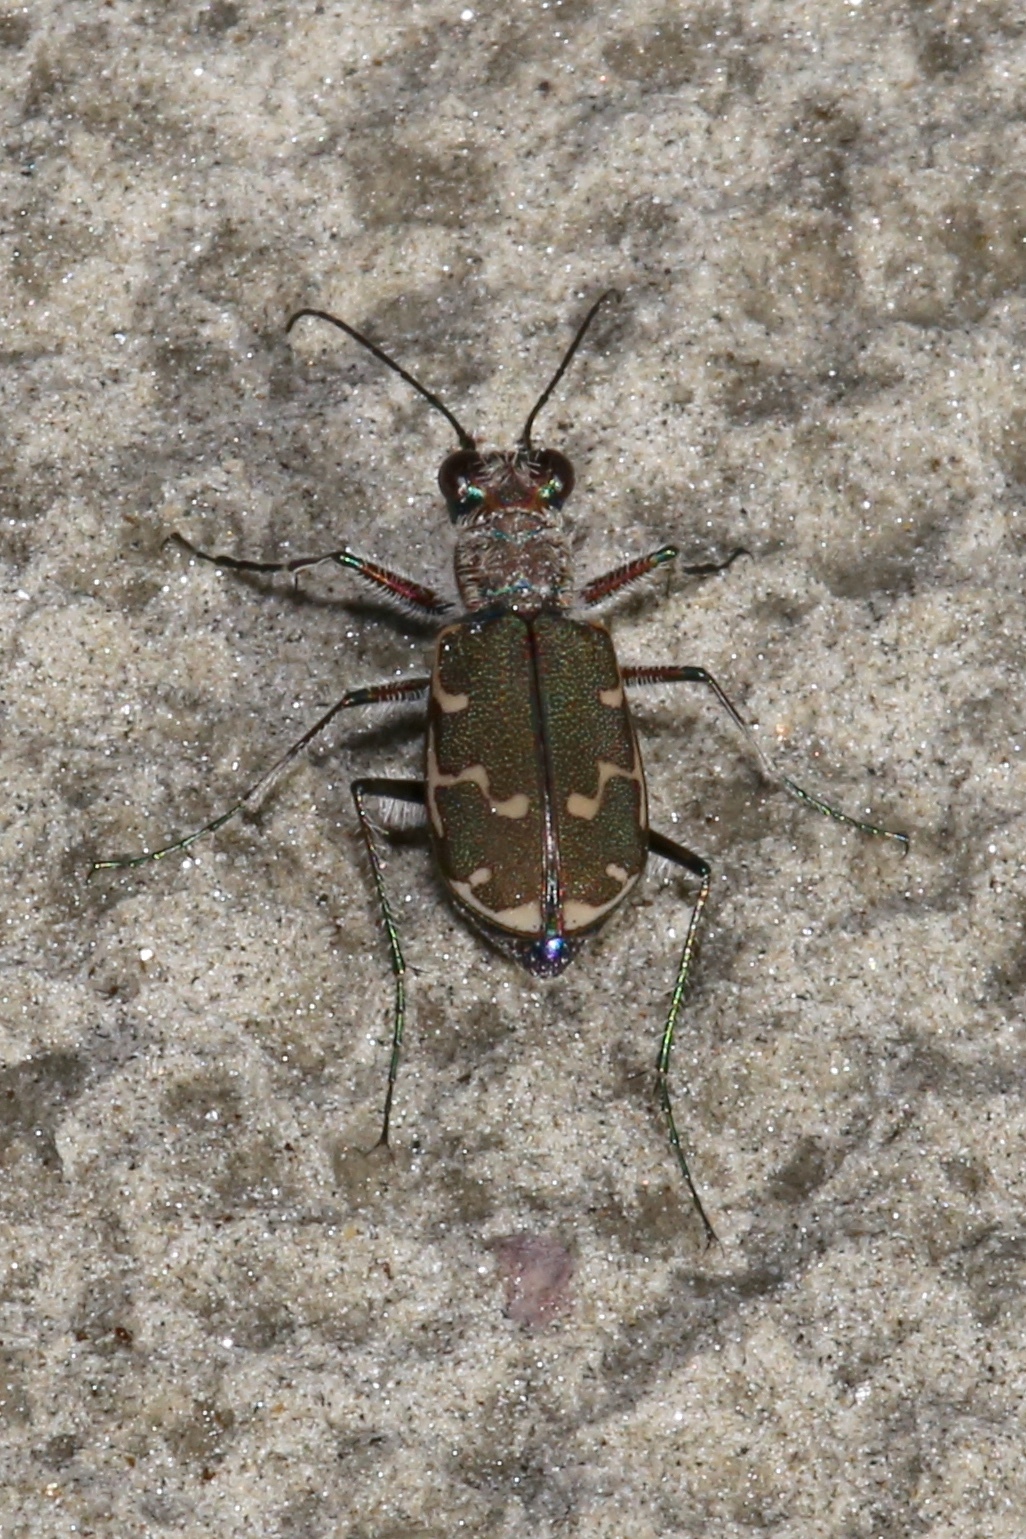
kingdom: Animalia
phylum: Arthropoda
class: Insecta
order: Coleoptera
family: Carabidae
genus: Cicindela
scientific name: Cicindela repanda
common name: Bronzed tiger beetle
